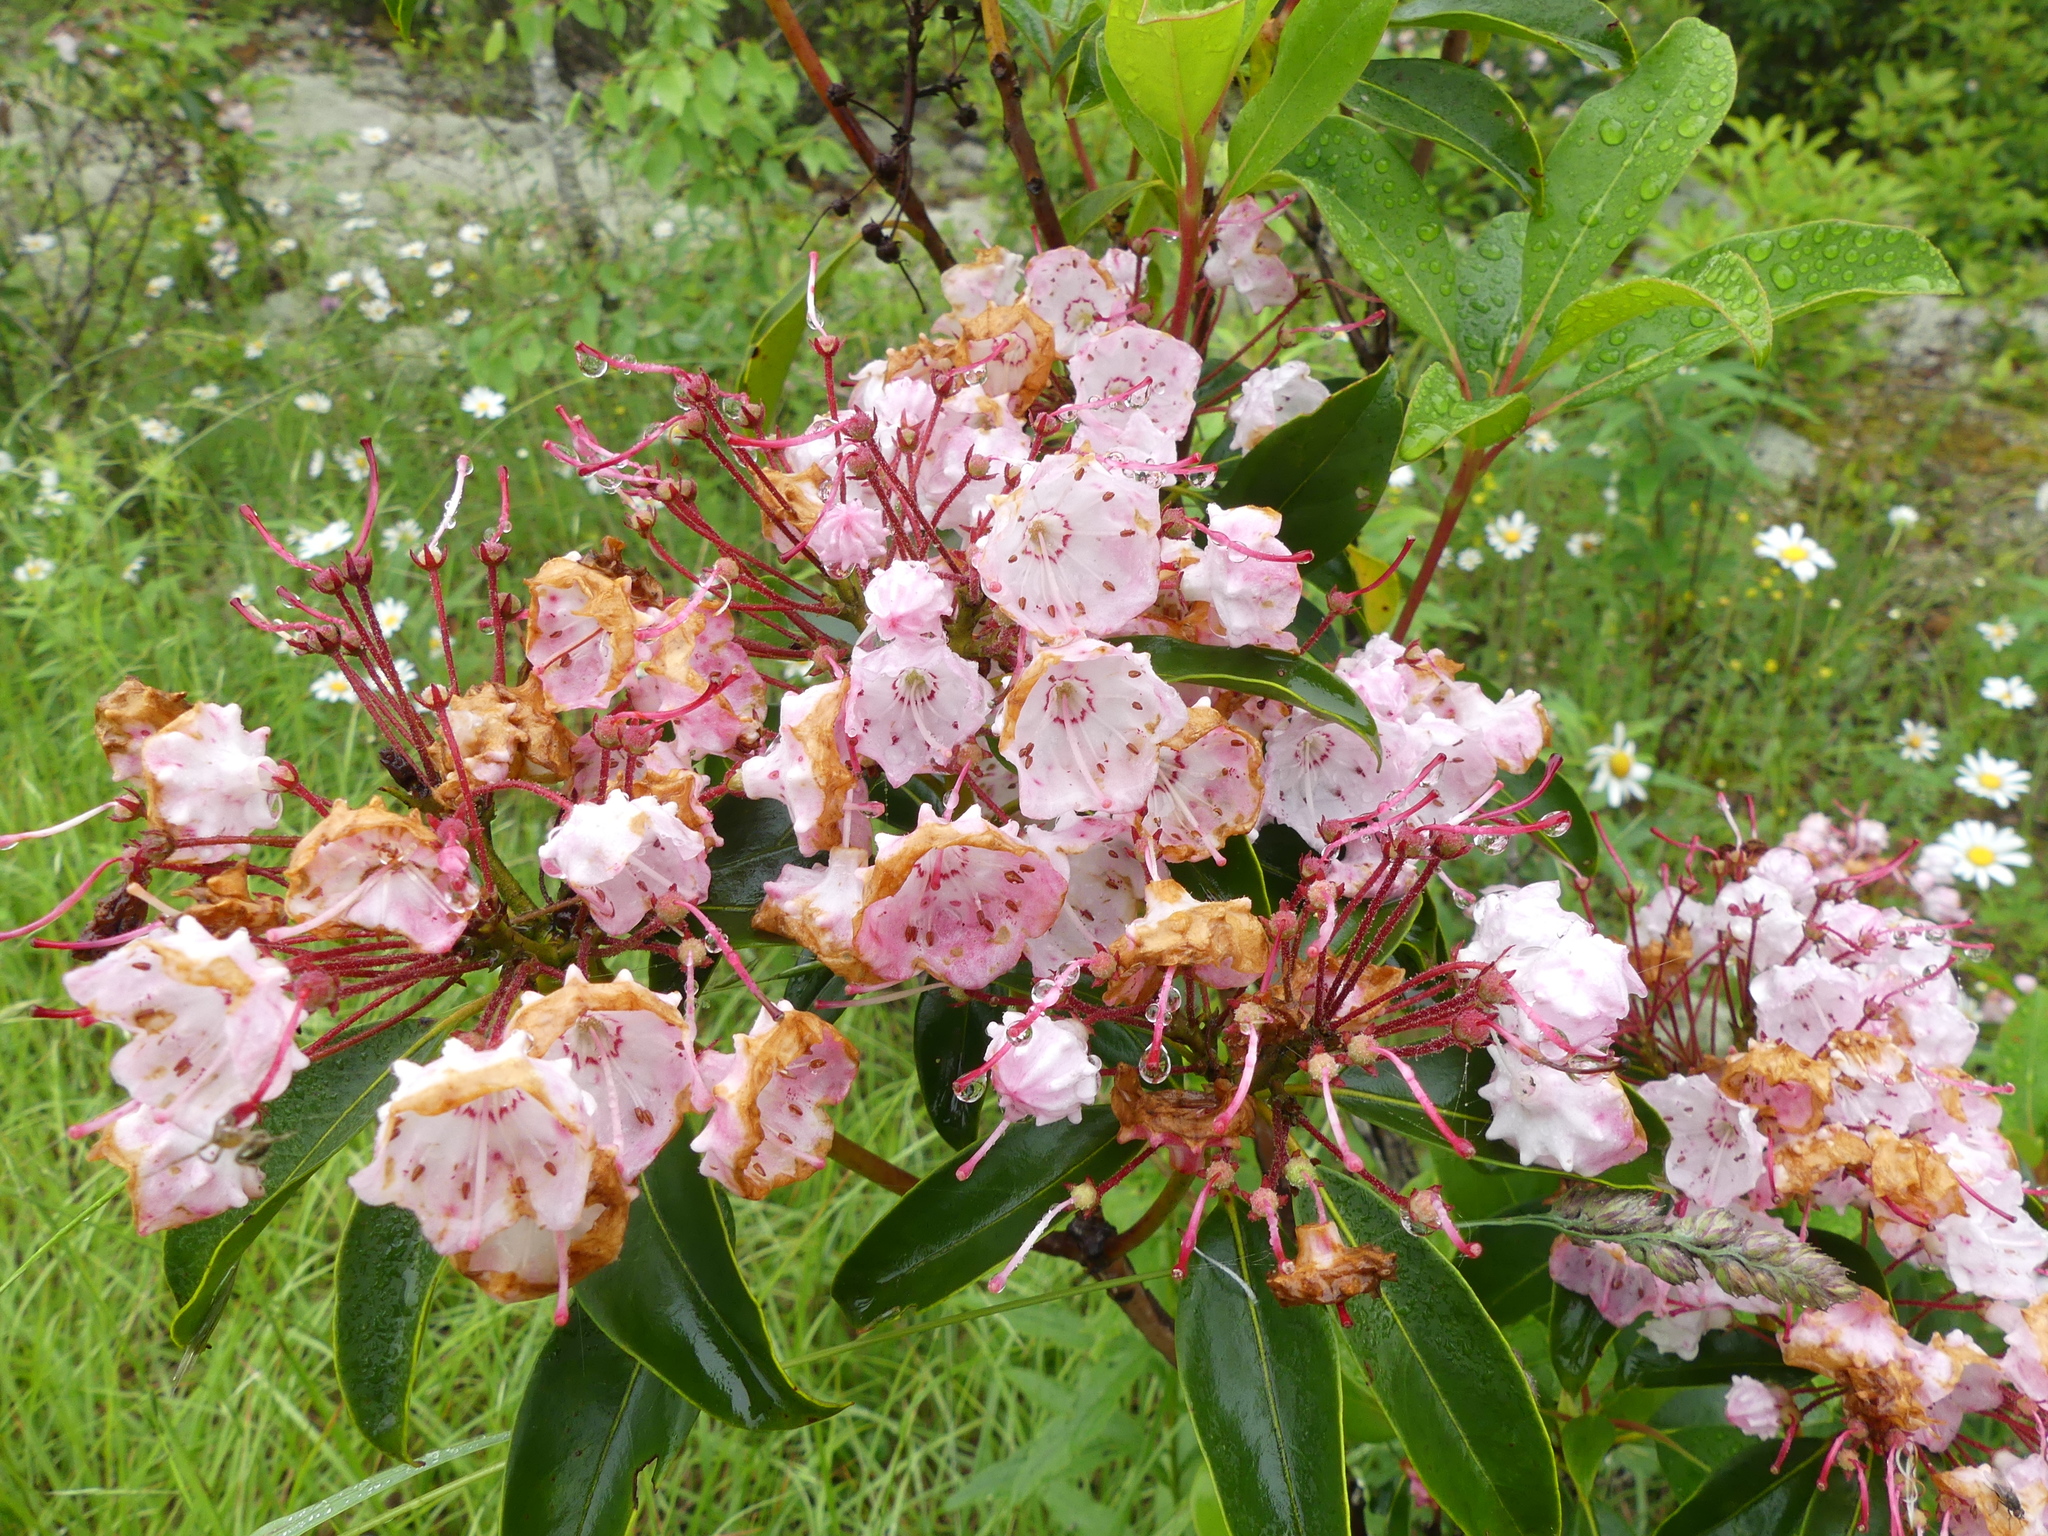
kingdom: Plantae
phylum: Tracheophyta
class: Magnoliopsida
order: Ericales
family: Ericaceae
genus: Kalmia
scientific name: Kalmia latifolia
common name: Mountain-laurel
